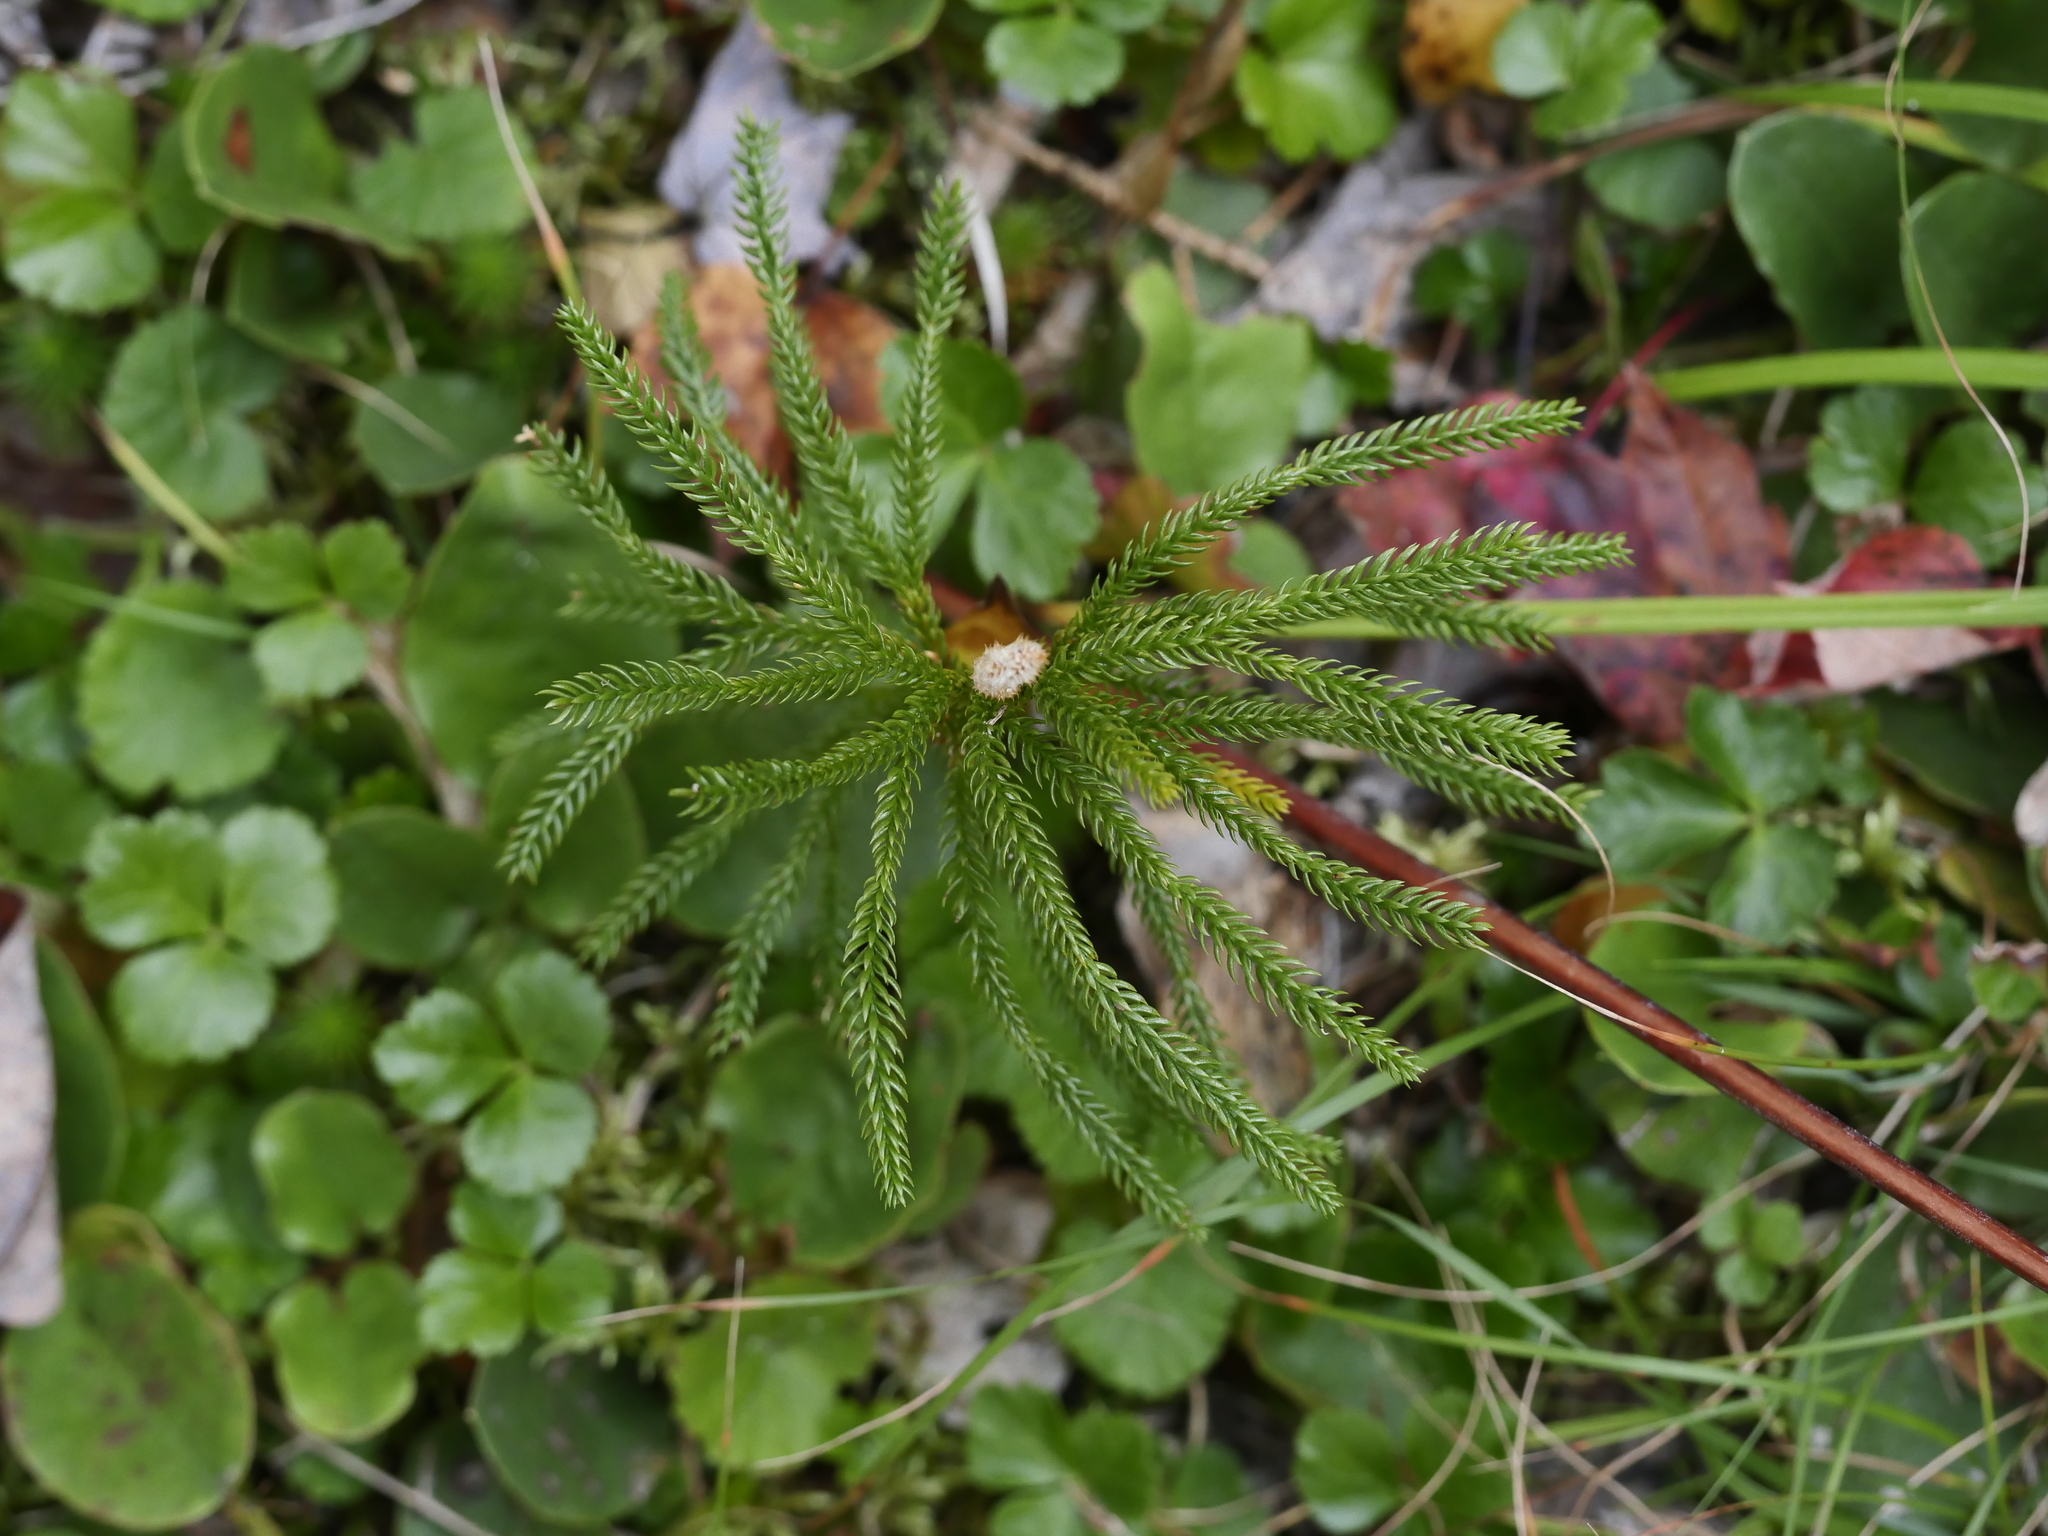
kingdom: Plantae
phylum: Tracheophyta
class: Lycopodiopsida
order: Lycopodiales
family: Lycopodiaceae
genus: Dendrolycopodium
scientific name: Dendrolycopodium dendroideum
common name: Northern tree-clubmoss
